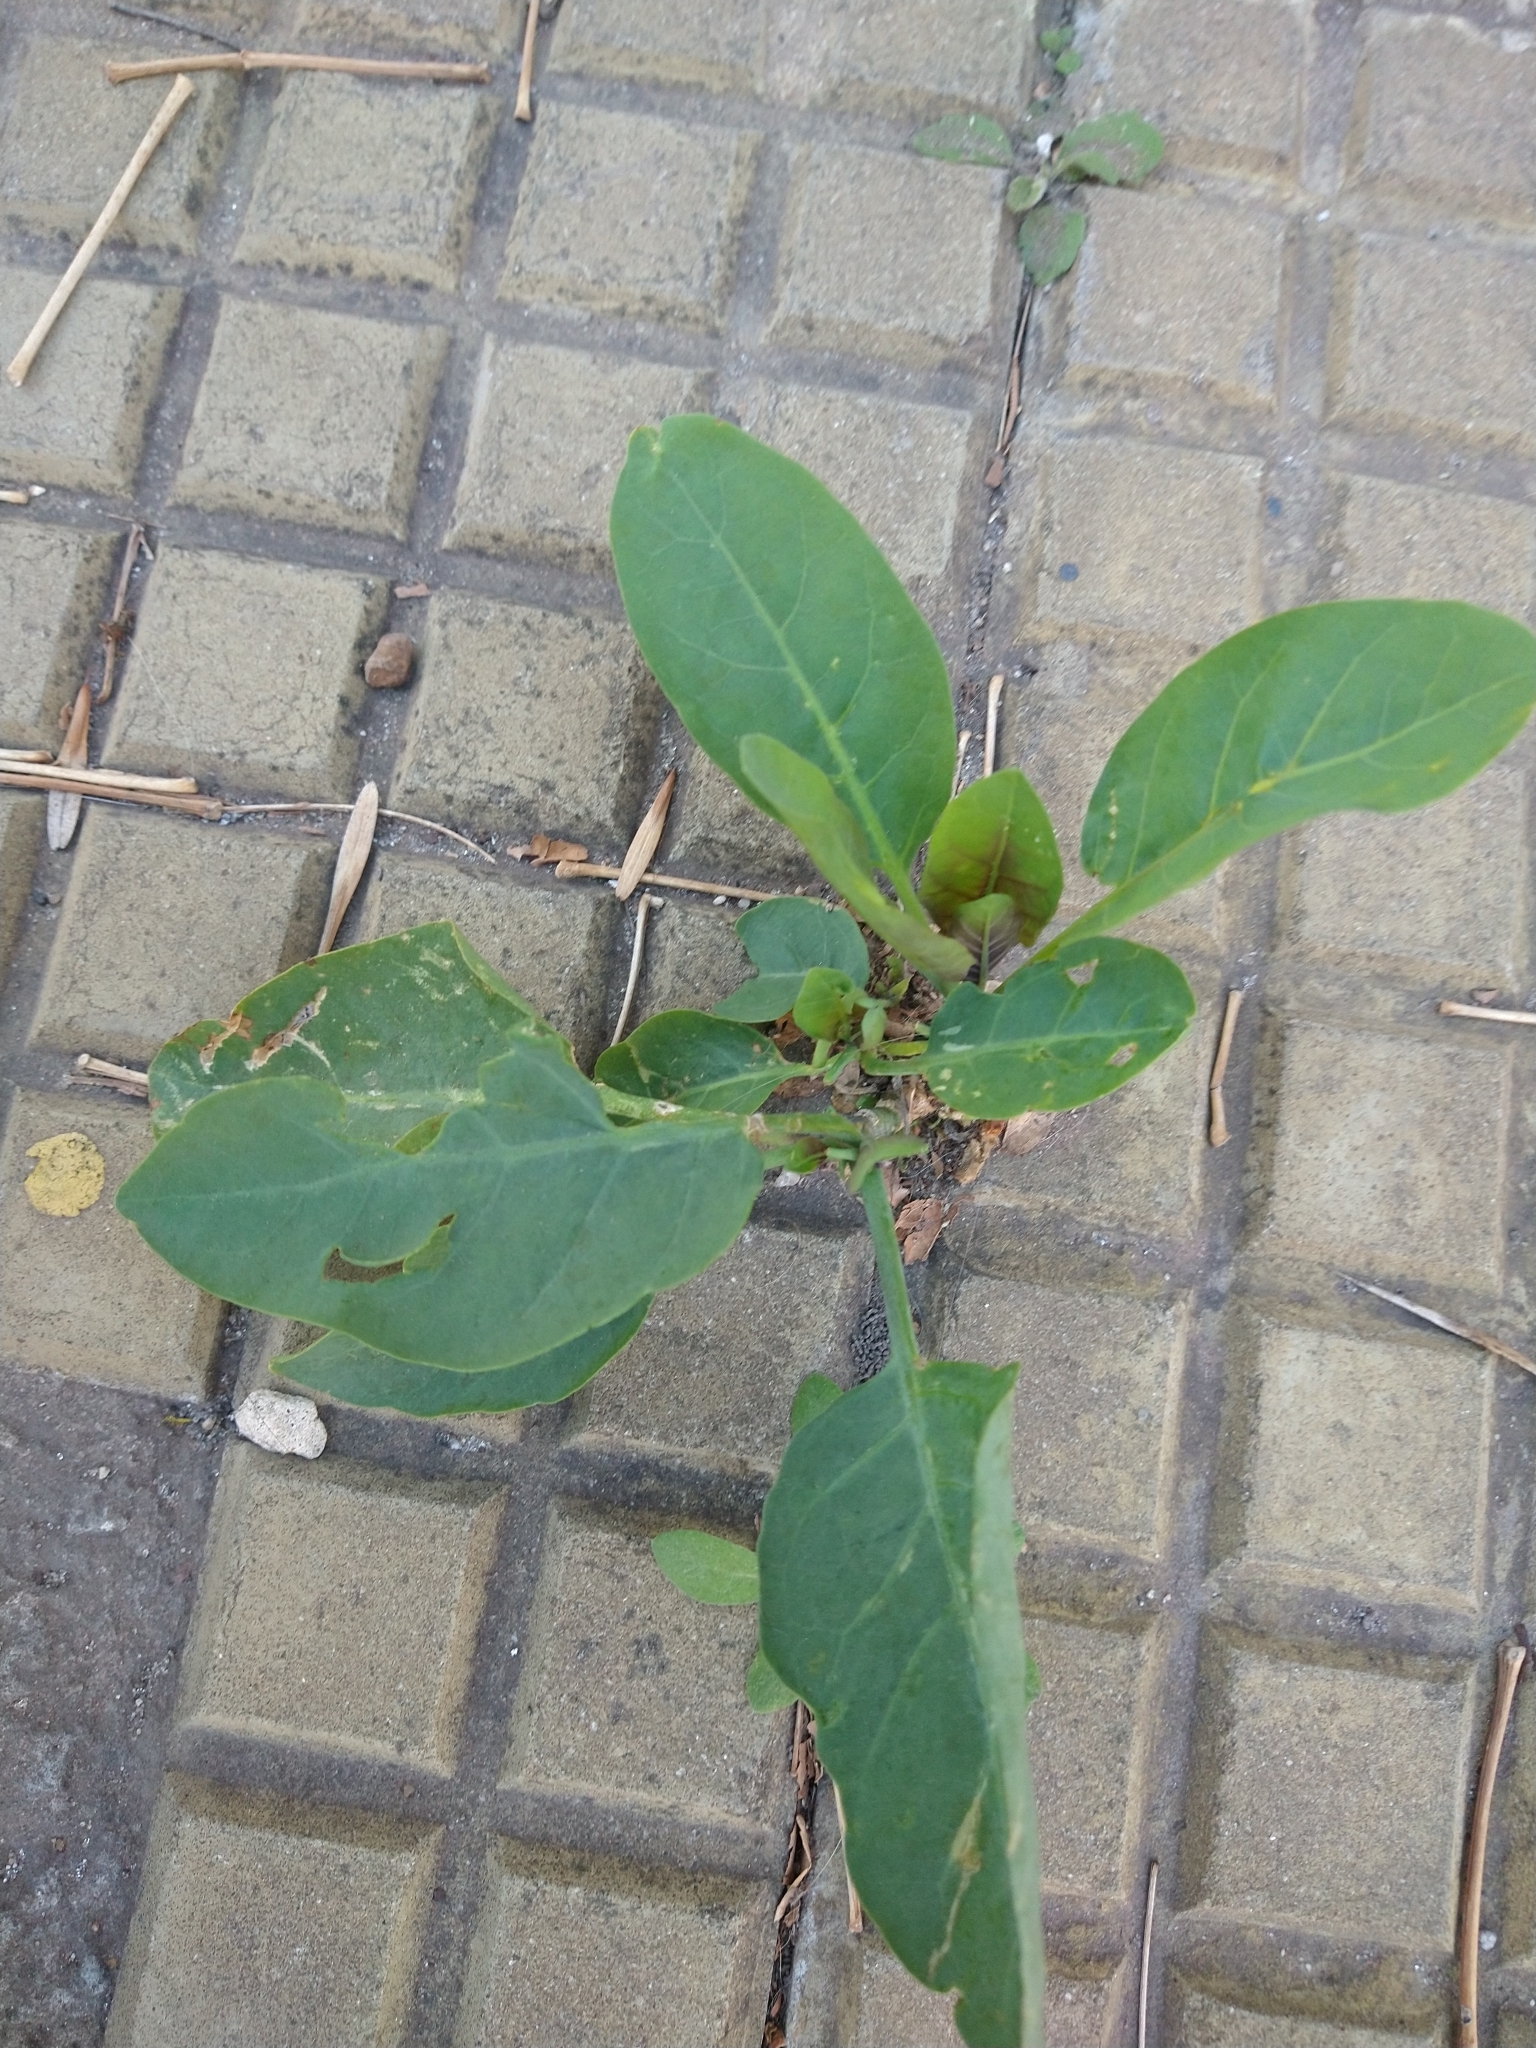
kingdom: Plantae
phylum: Tracheophyta
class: Magnoliopsida
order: Solanales
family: Solanaceae
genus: Nicotiana
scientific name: Nicotiana glauca
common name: Tree tobacco
